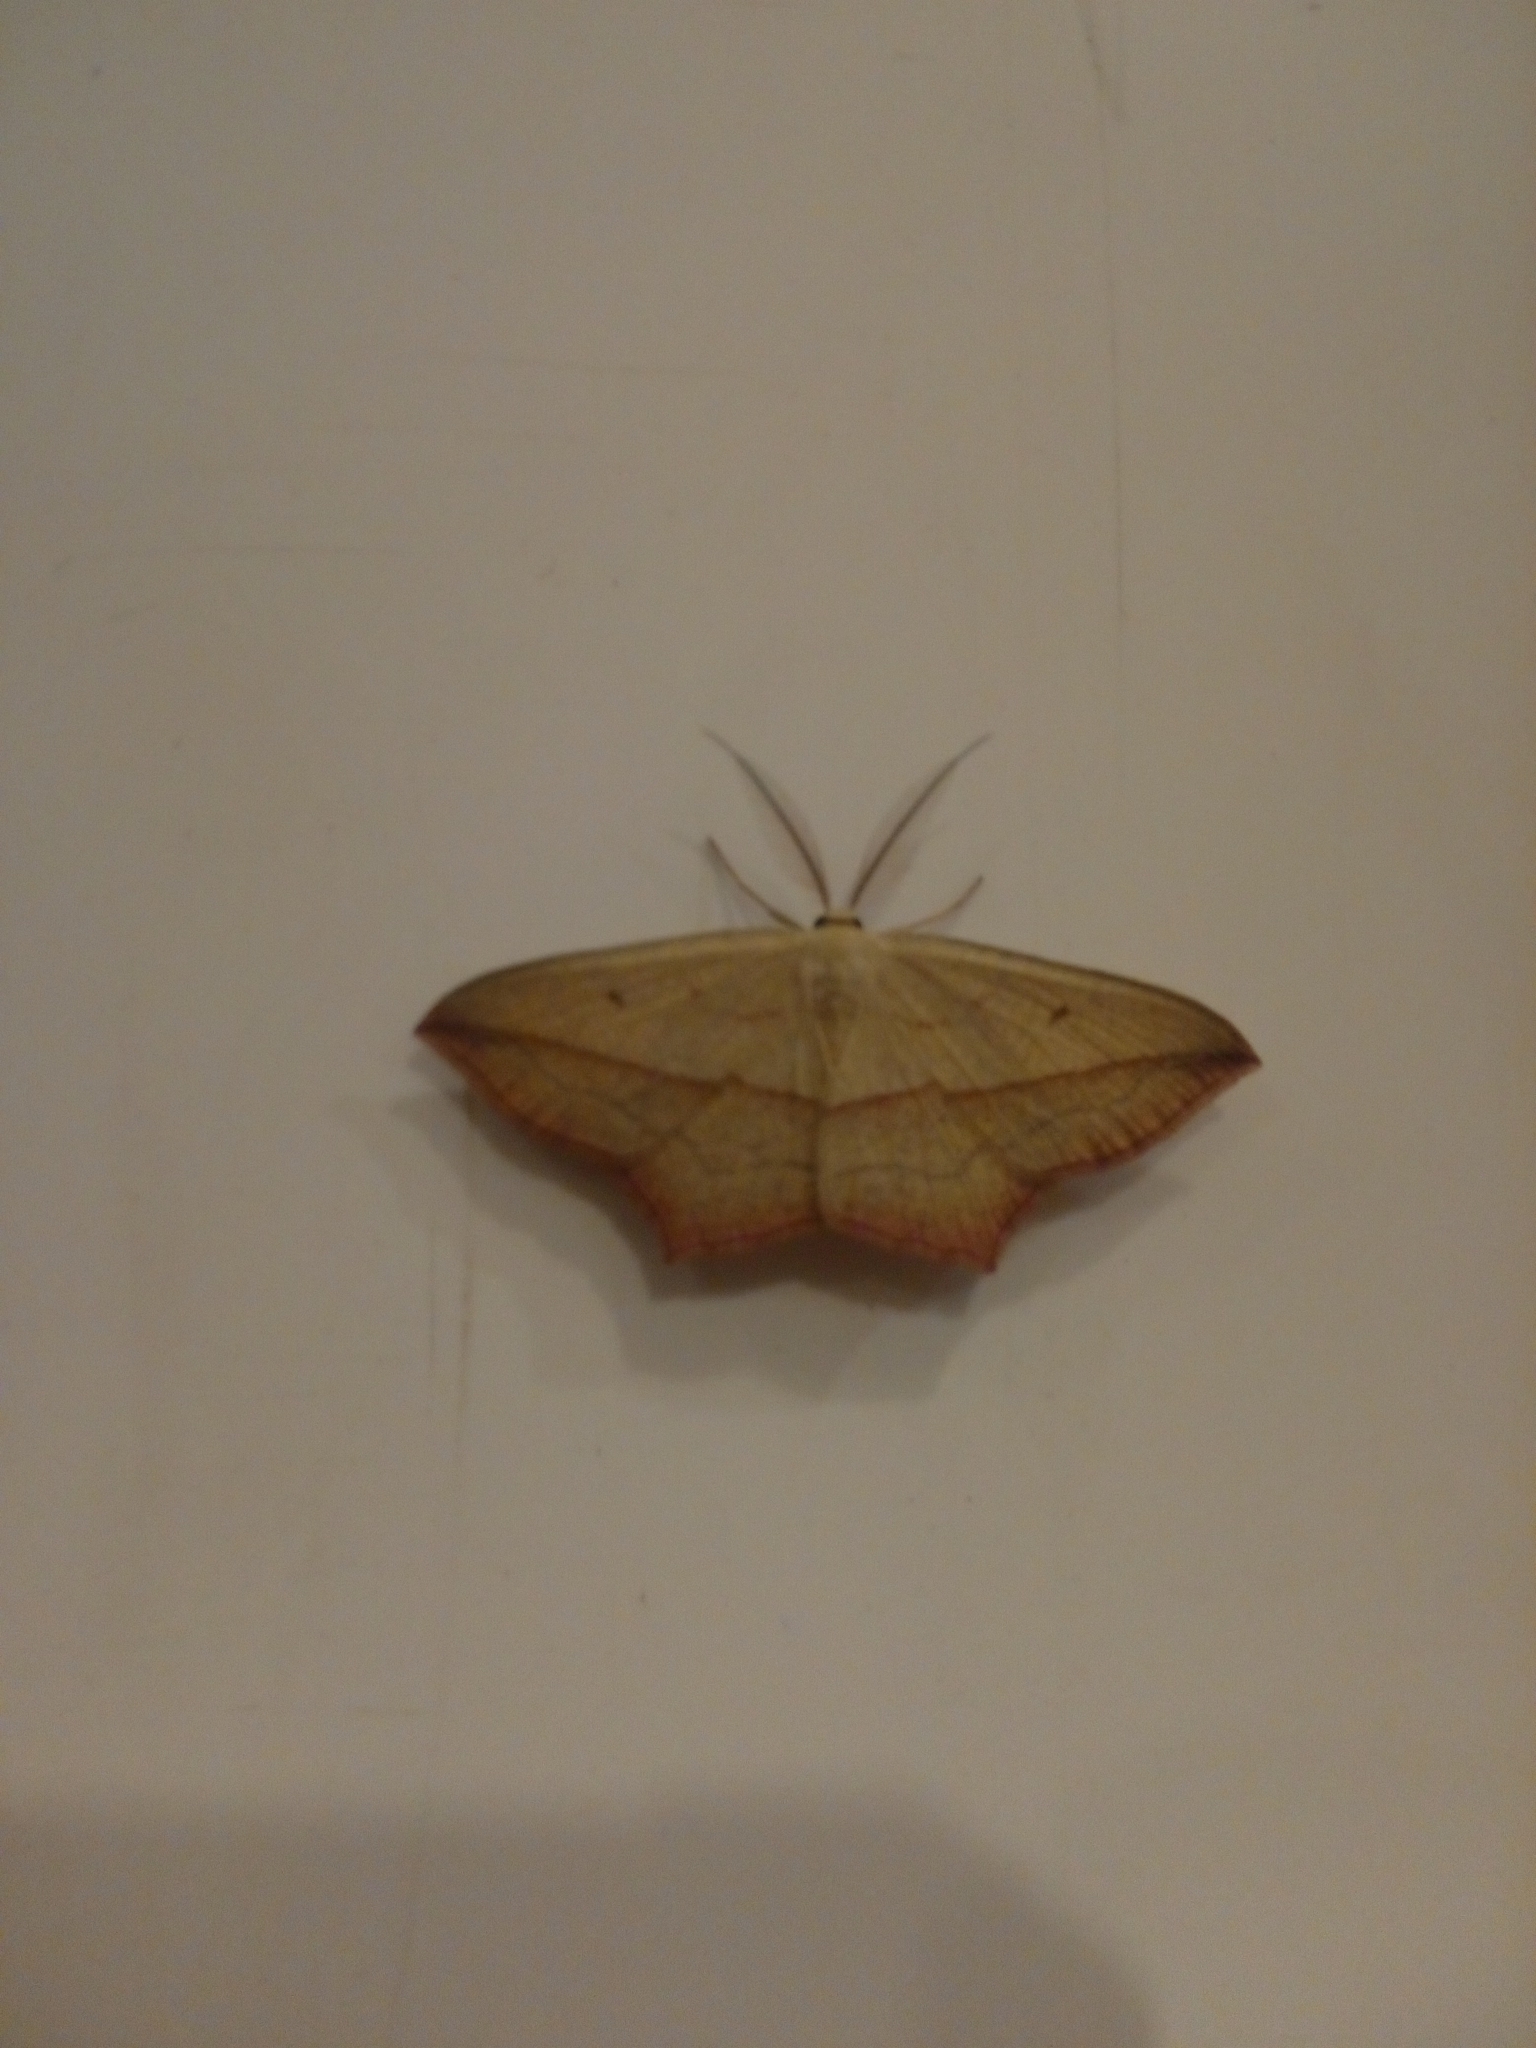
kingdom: Animalia
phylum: Arthropoda
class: Insecta
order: Lepidoptera
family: Geometridae
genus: Timandra
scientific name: Timandra comae
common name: Blood-vein
